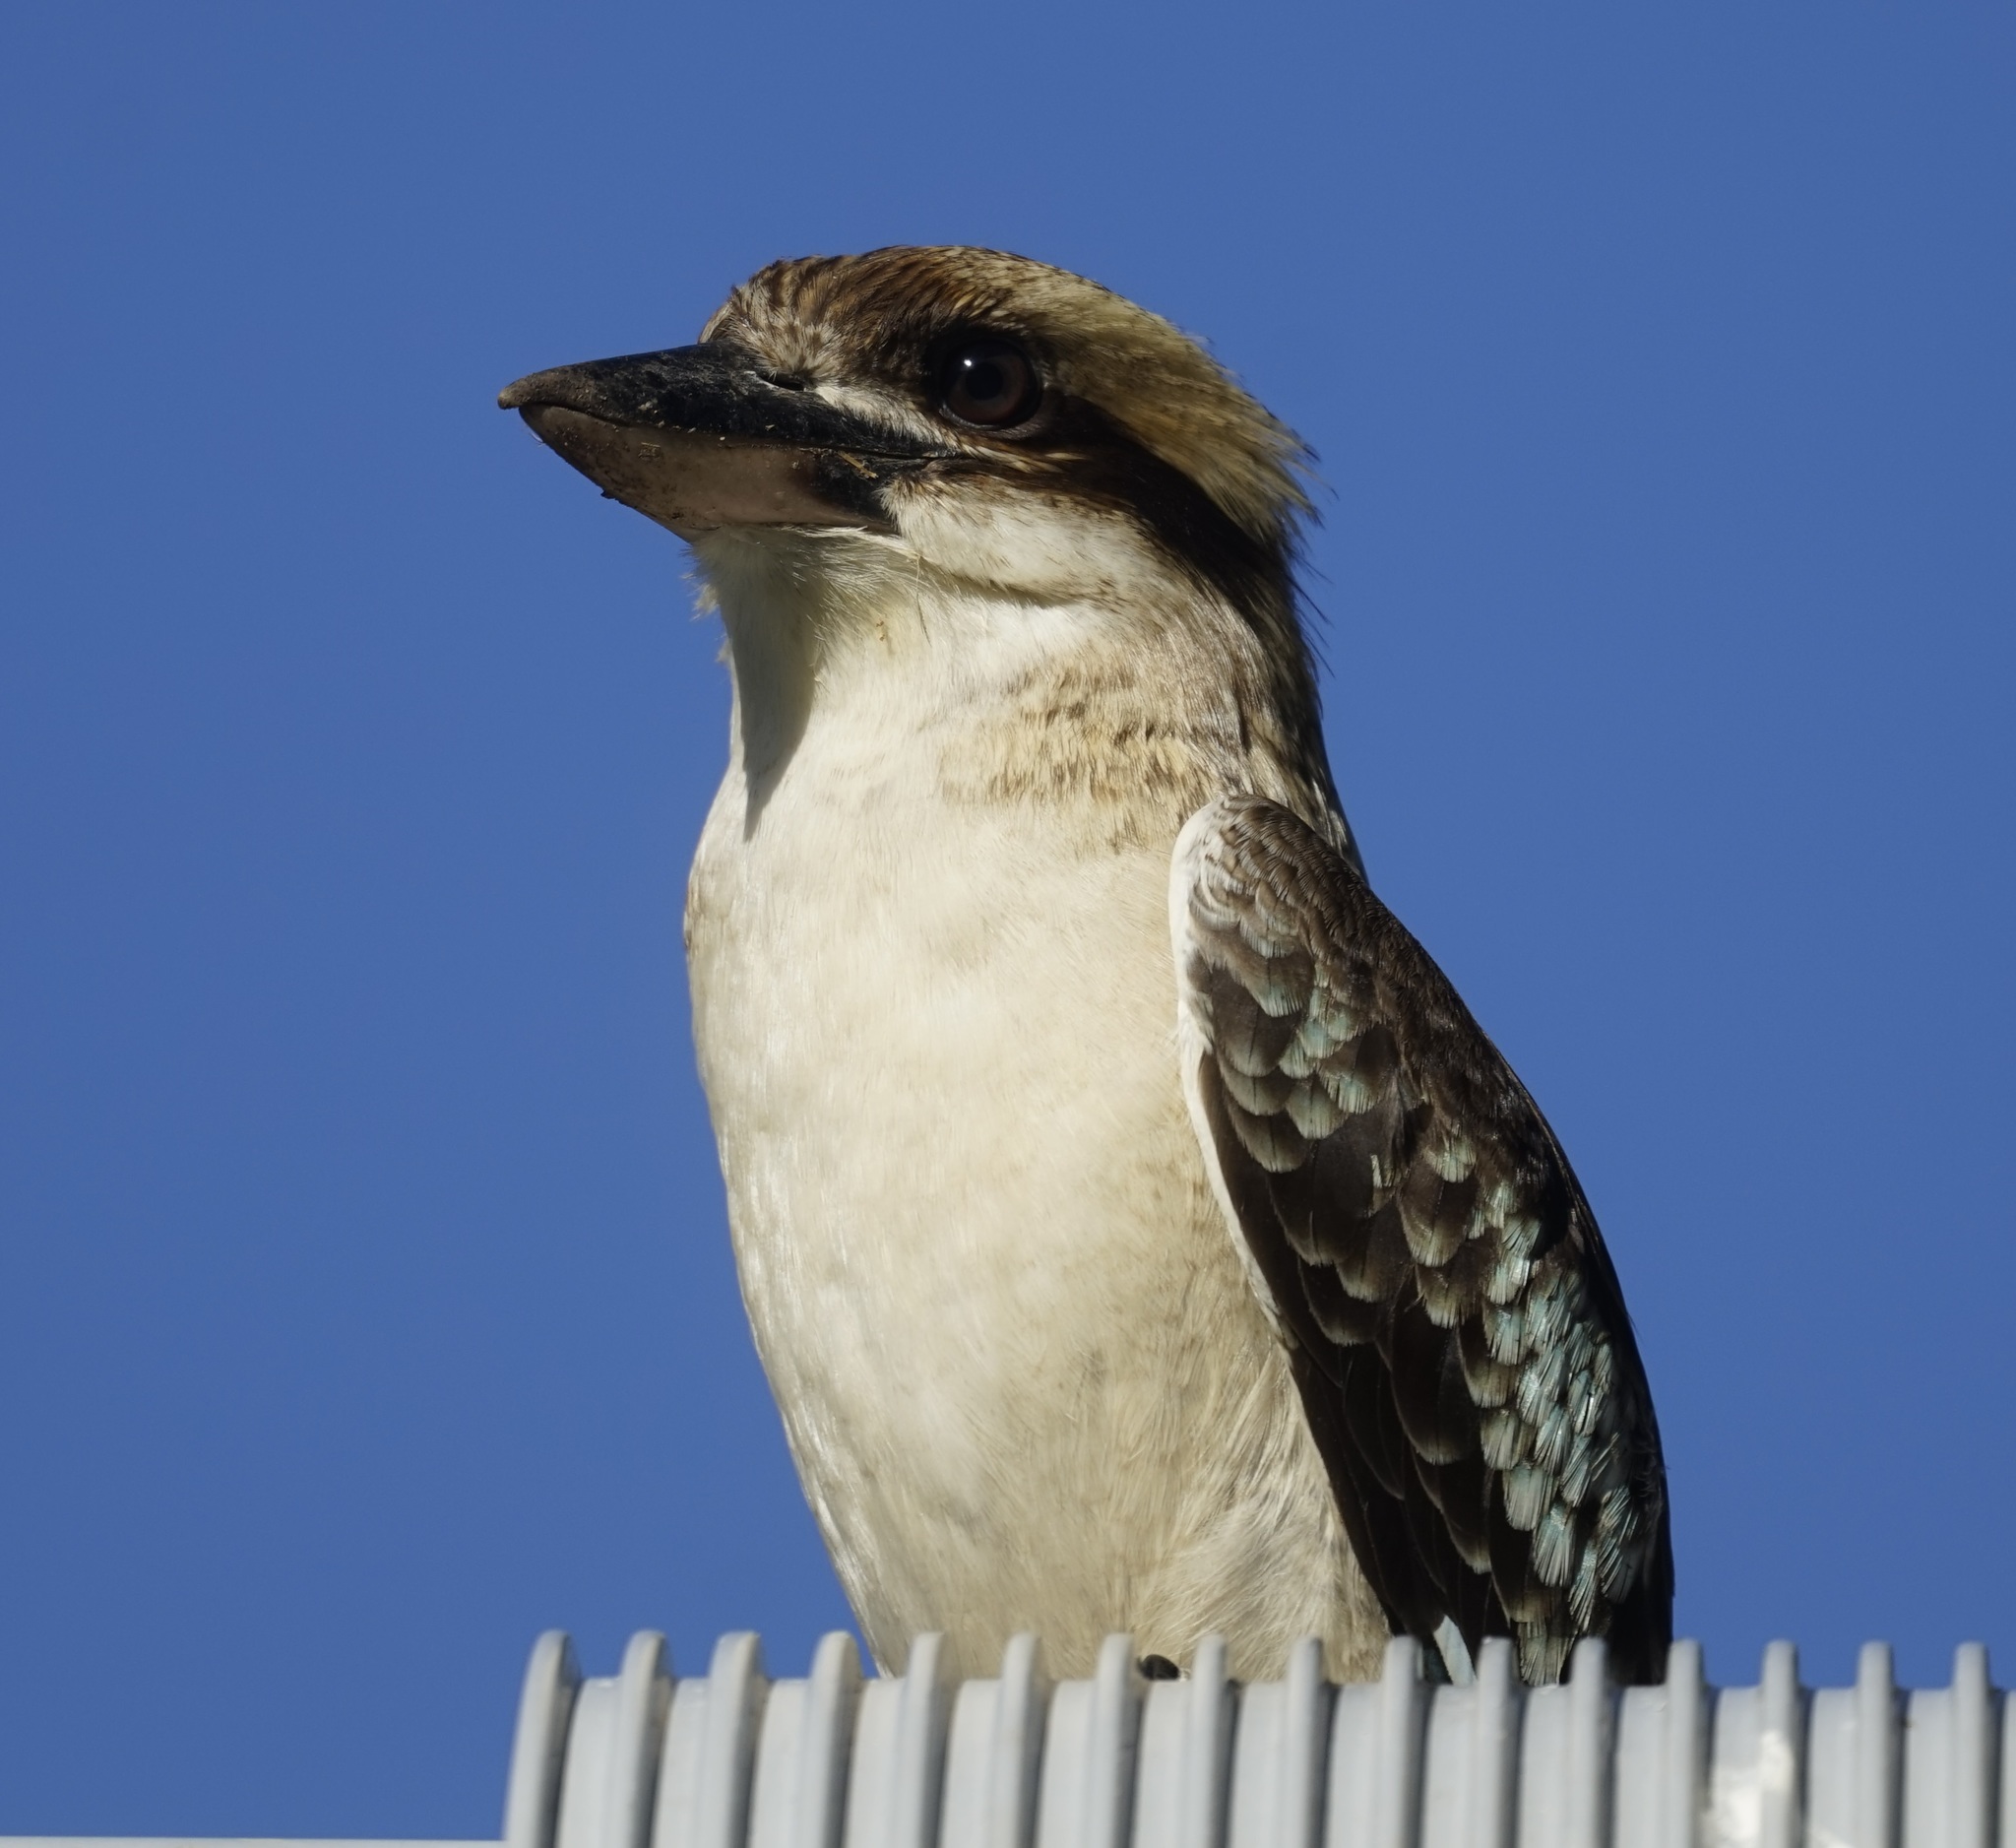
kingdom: Animalia
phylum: Chordata
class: Aves
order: Coraciiformes
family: Alcedinidae
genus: Dacelo
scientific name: Dacelo novaeguineae
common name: Laughing kookaburra
